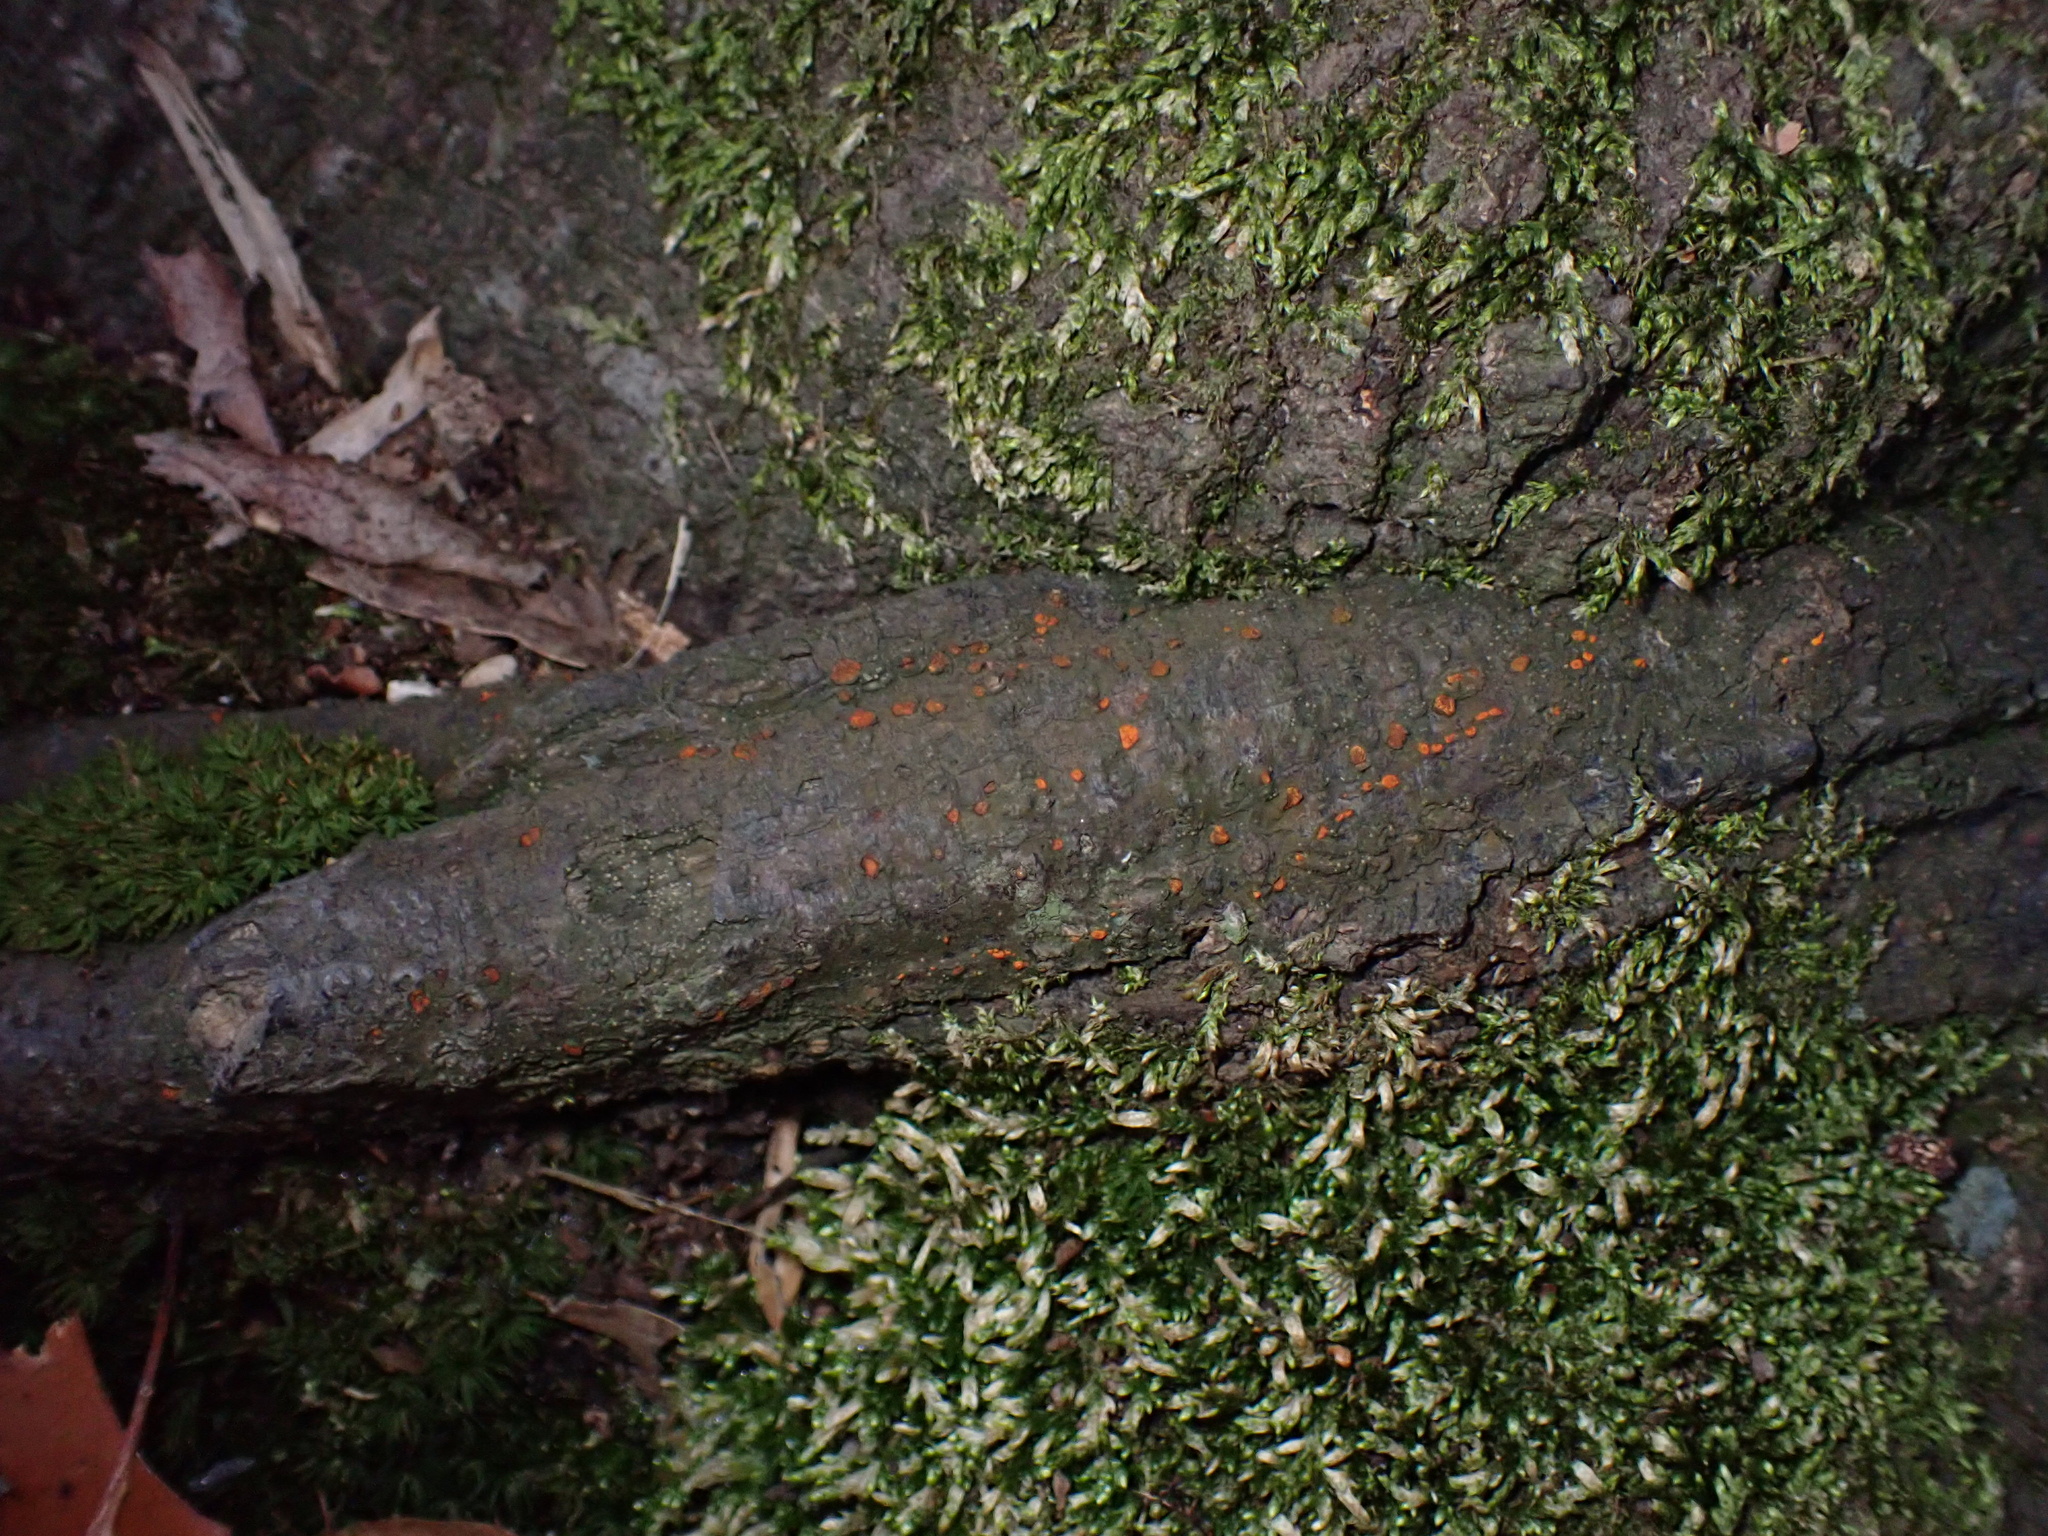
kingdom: Fungi
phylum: Ascomycota
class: Sordariomycetes
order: Diaporthales
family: Cryphonectriaceae
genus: Amphilogia
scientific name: Amphilogia gyrosa
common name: Orange hobnail canker
